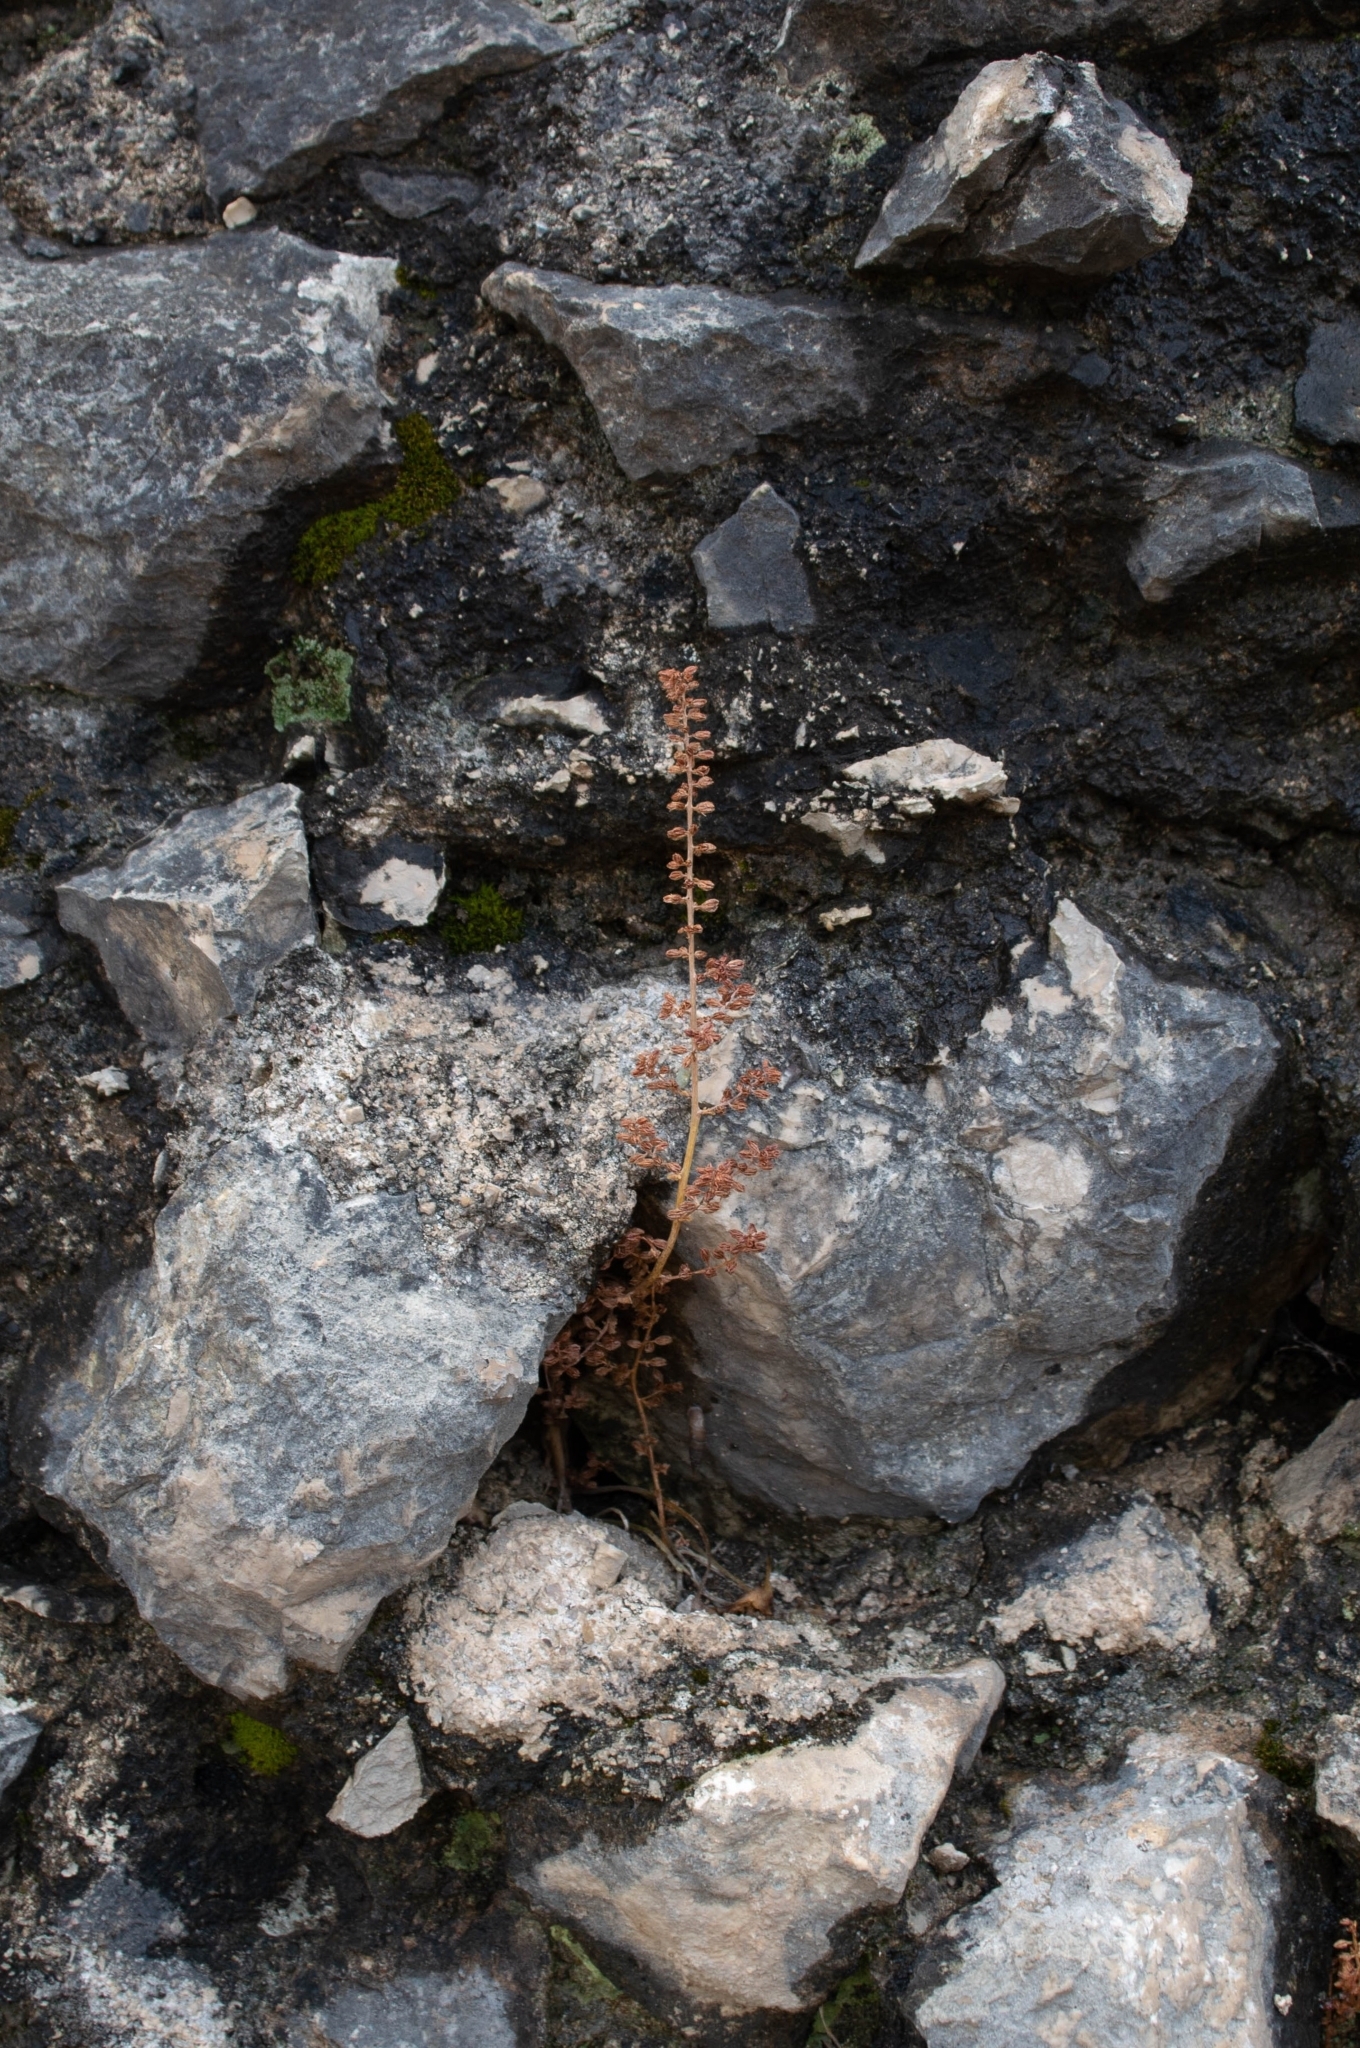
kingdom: Plantae
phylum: Tracheophyta
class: Magnoliopsida
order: Saxifragales
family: Crassulaceae
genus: Umbilicus
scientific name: Umbilicus rupestris
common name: Navelwort
